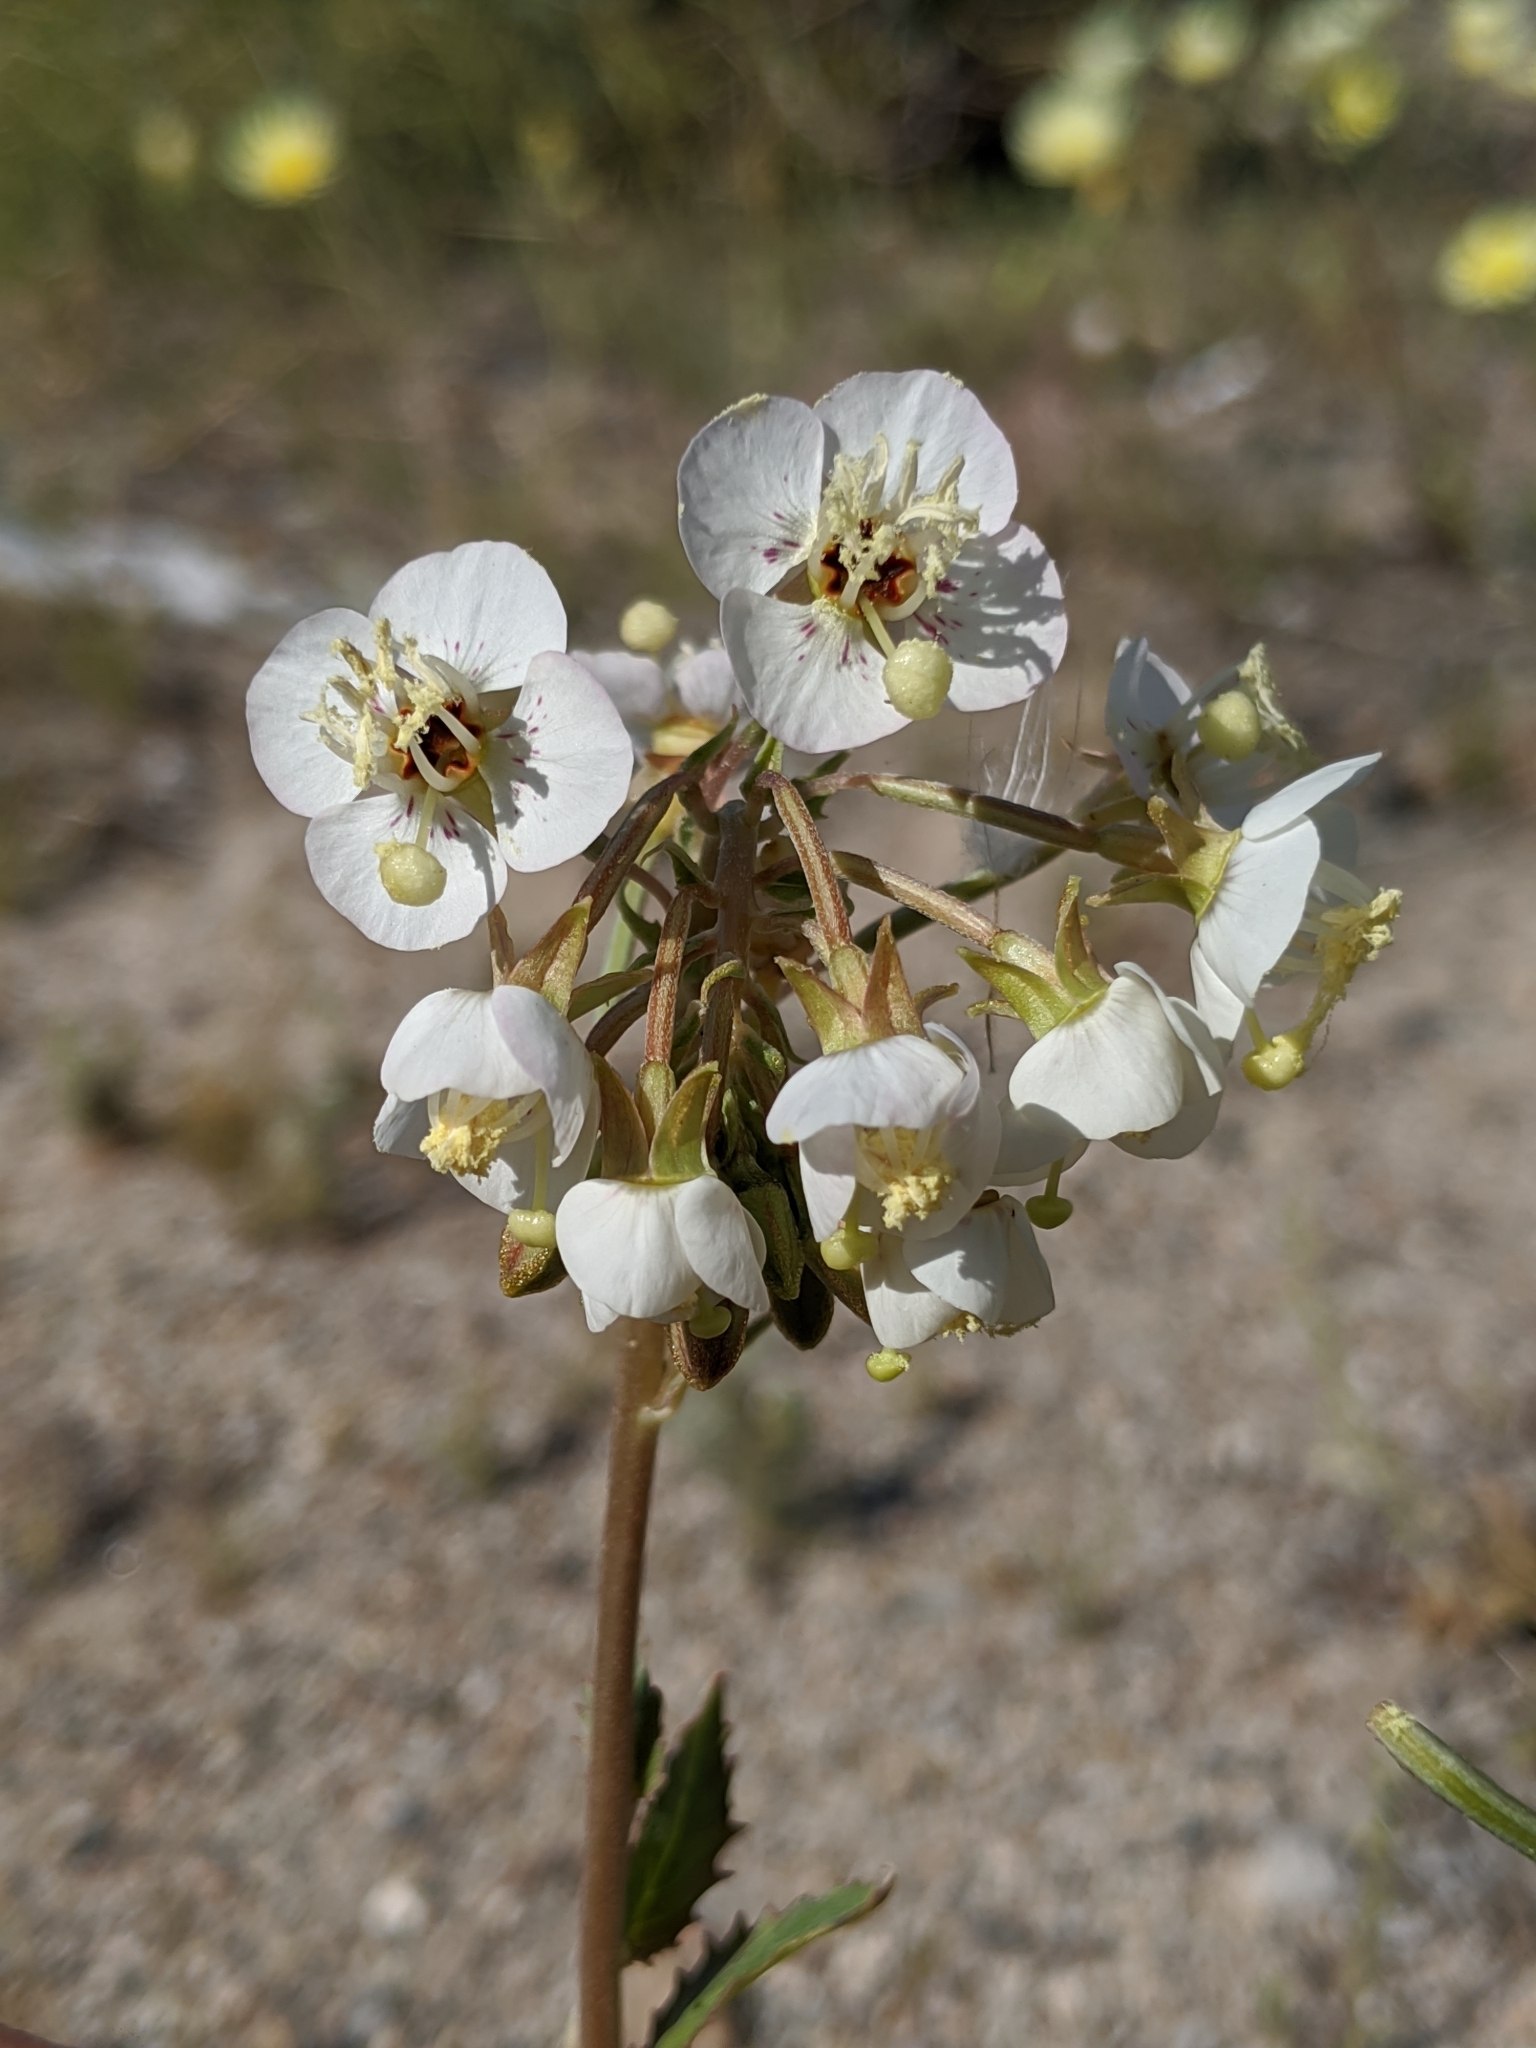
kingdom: Plantae
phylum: Tracheophyta
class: Magnoliopsida
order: Myrtales
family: Onagraceae
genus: Chylismia
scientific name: Chylismia claviformis
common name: Browneyes
